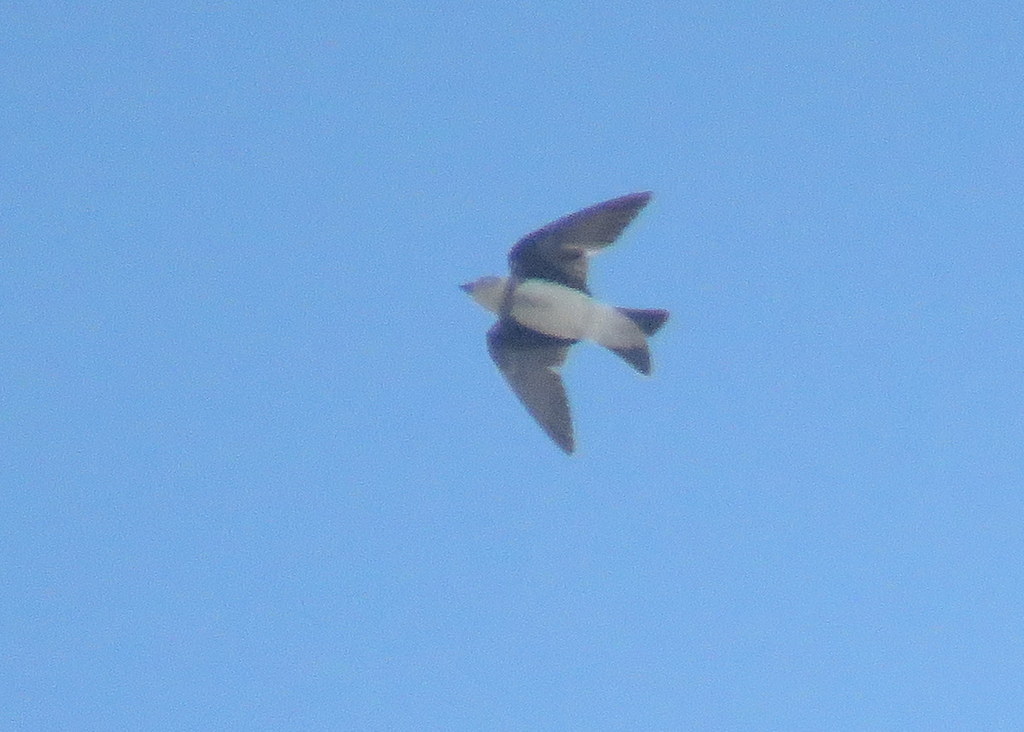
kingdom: Animalia
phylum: Chordata
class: Aves
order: Passeriformes
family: Hirundinidae
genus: Progne
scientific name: Progne tapera
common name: Brown-chested martin
